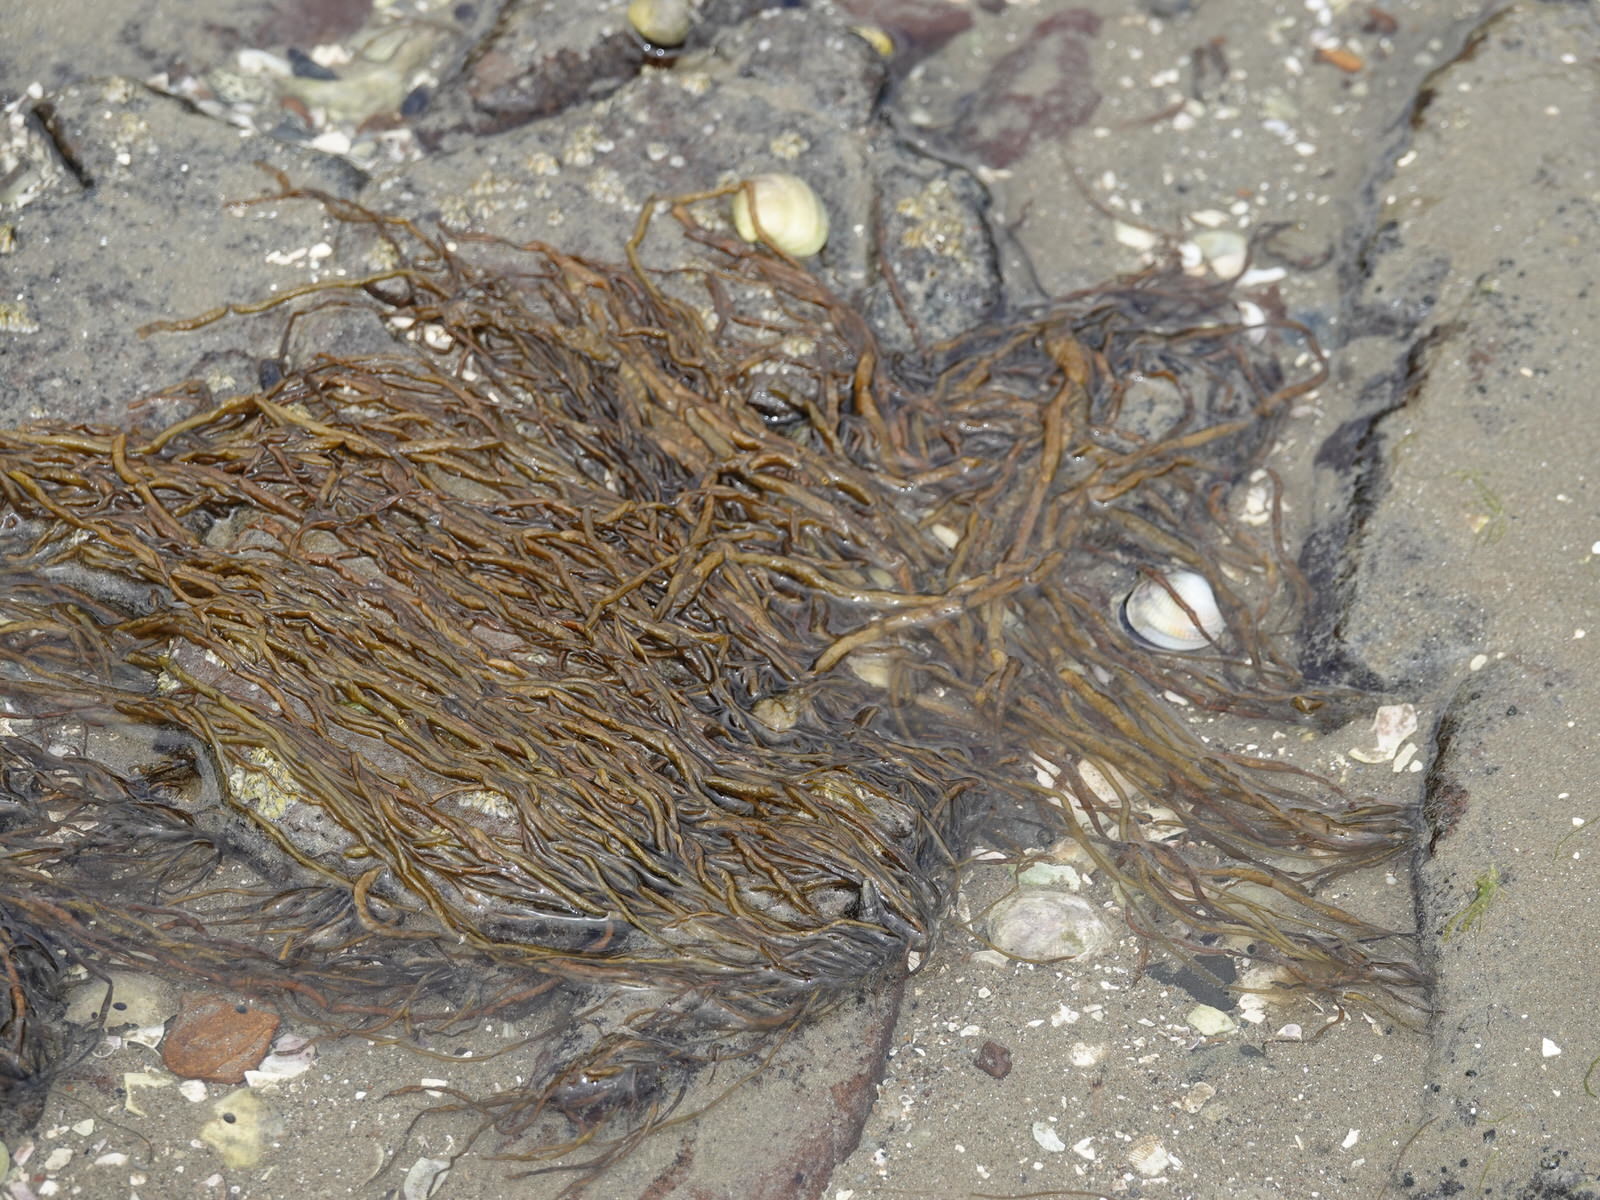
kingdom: Chromista
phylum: Ochrophyta
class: Phaeophyceae
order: Scytosiphonales
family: Scytosiphonaceae
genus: Scytosiphon
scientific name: Scytosiphon lomentaria
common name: Beanweed
